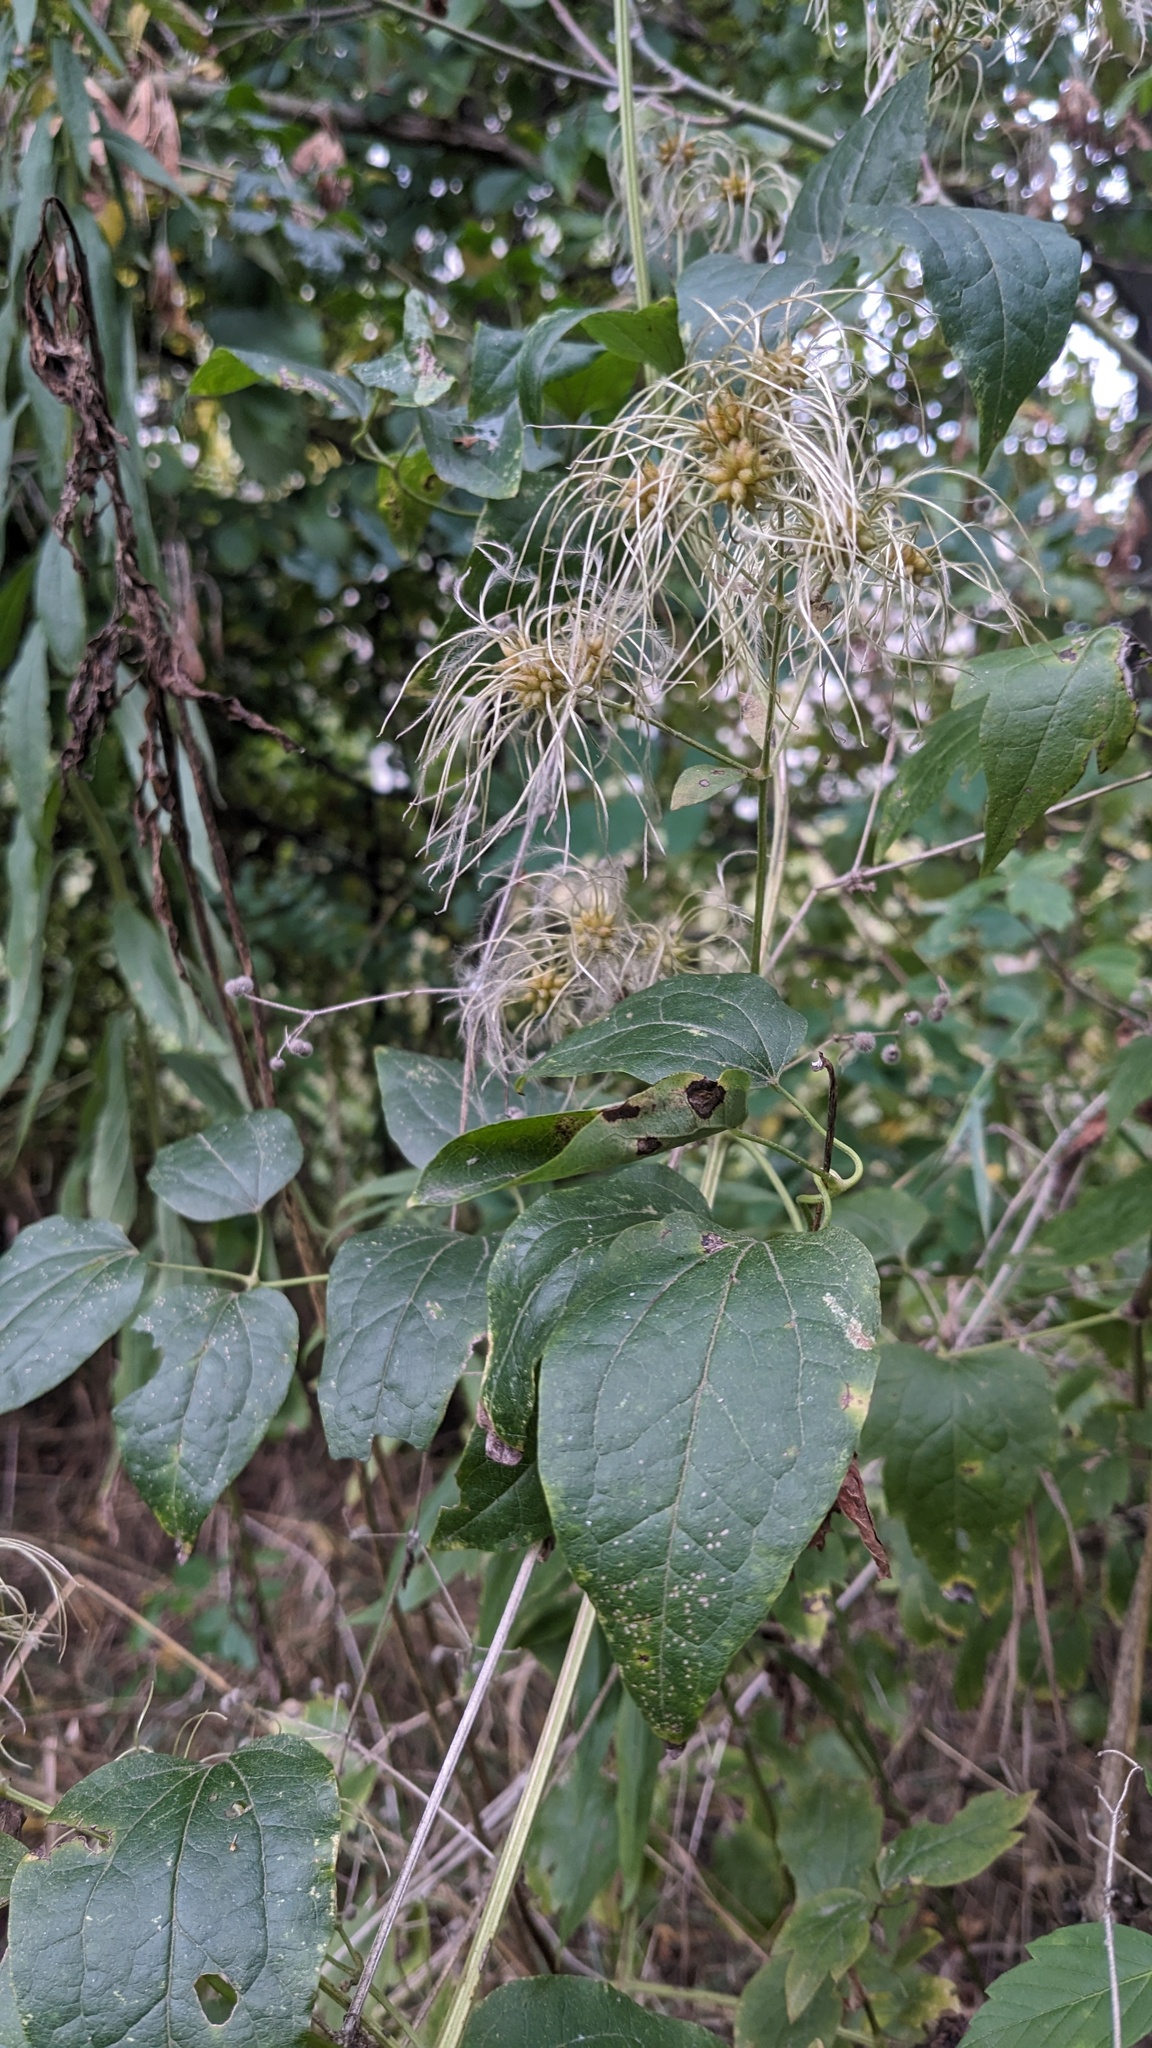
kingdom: Plantae
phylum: Tracheophyta
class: Magnoliopsida
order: Ranunculales
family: Ranunculaceae
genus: Clematis
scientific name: Clematis vitalba
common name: Evergreen clematis
